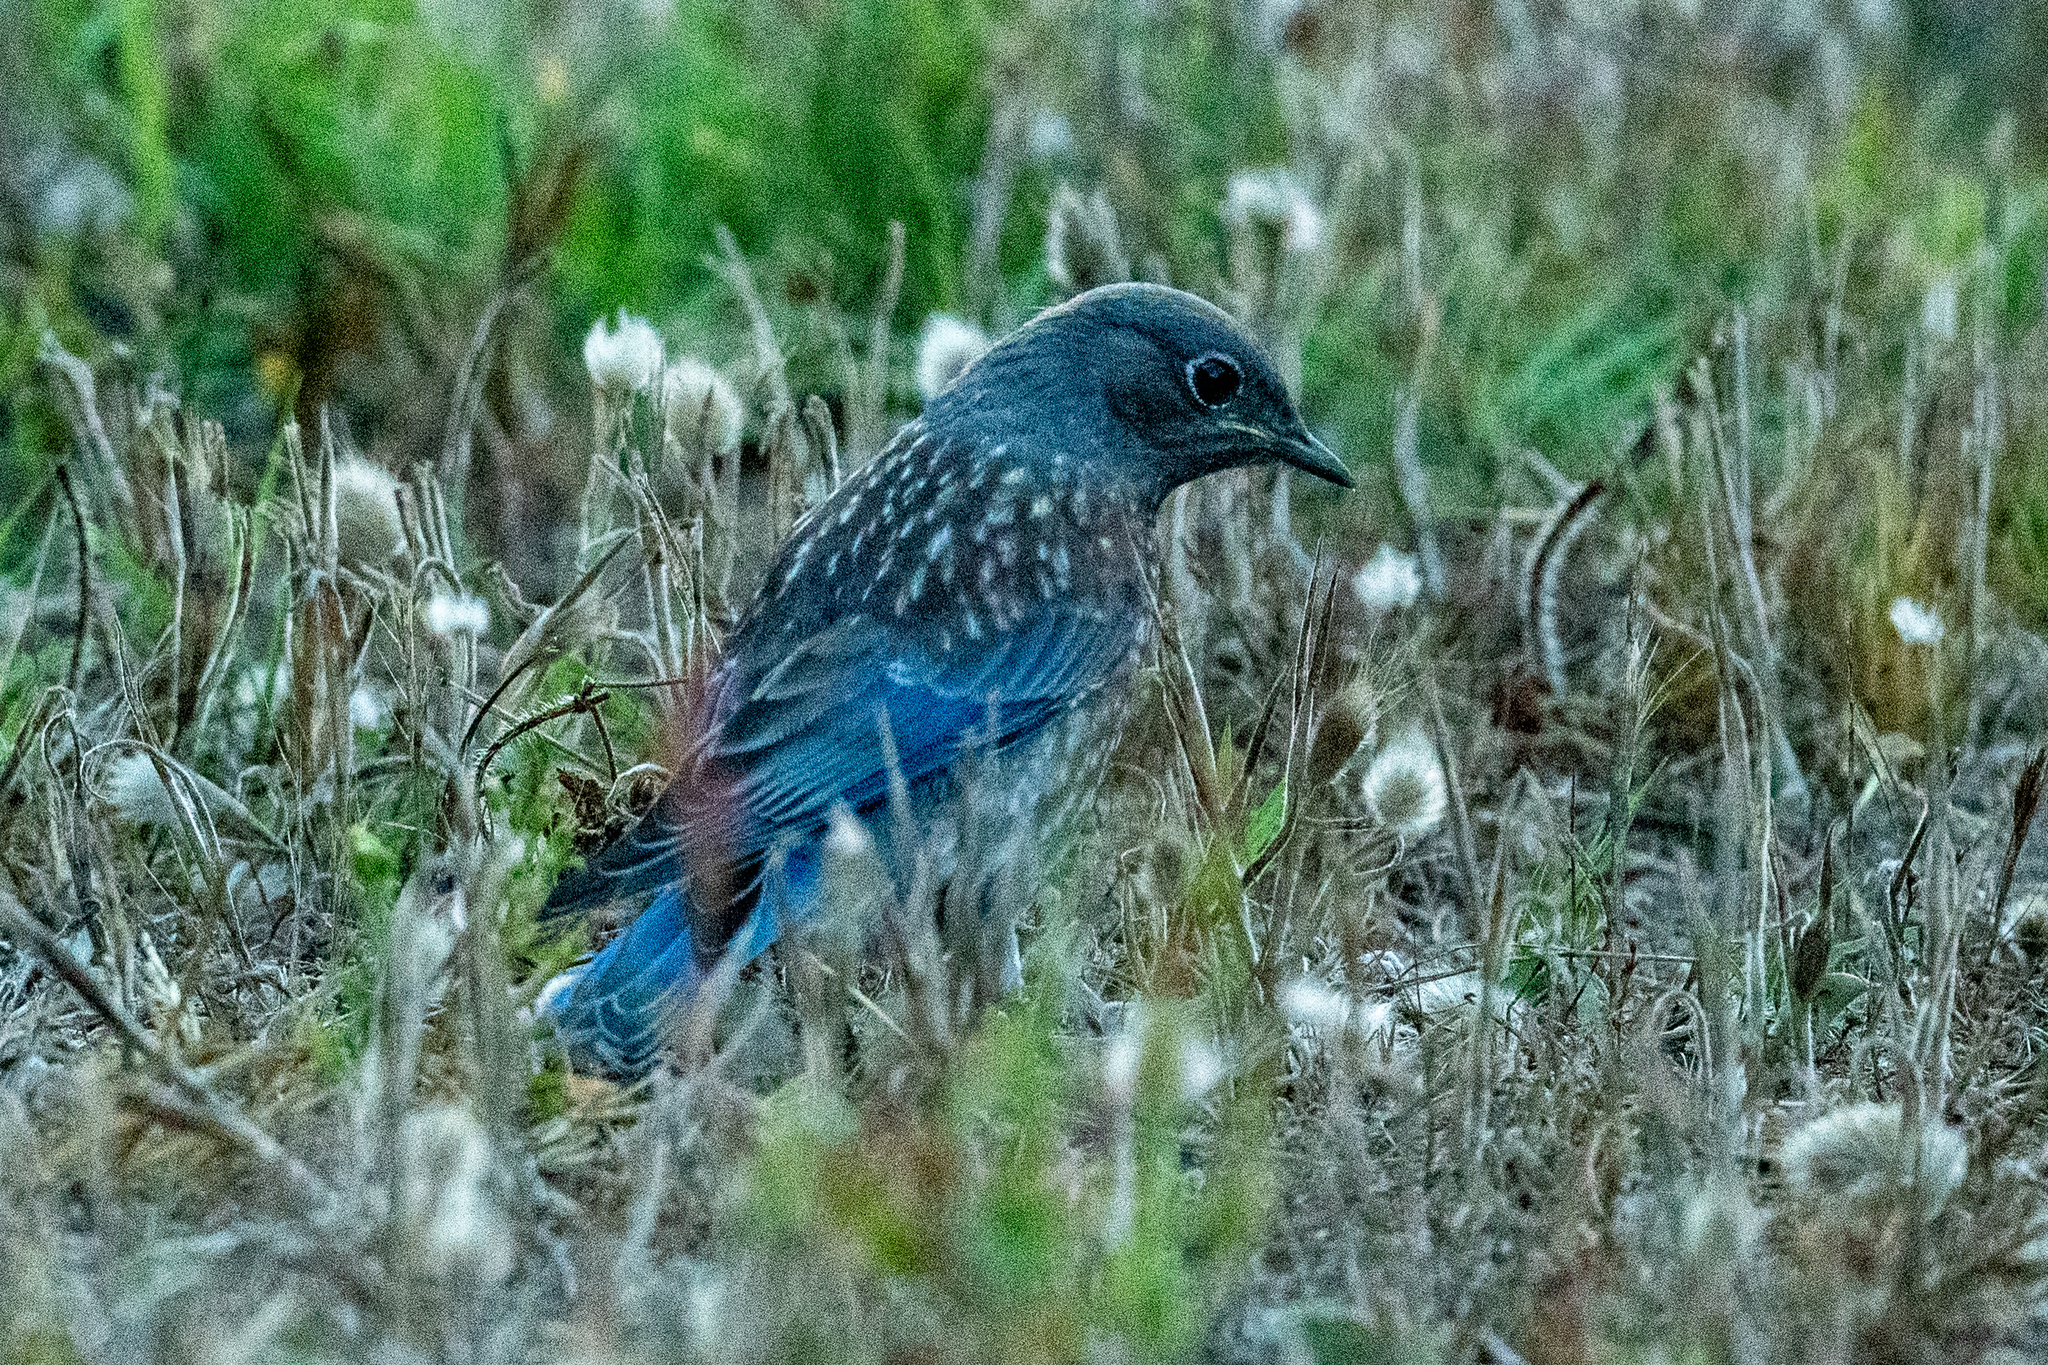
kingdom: Animalia
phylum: Chordata
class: Aves
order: Passeriformes
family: Turdidae
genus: Sialia
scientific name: Sialia mexicana
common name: Western bluebird
